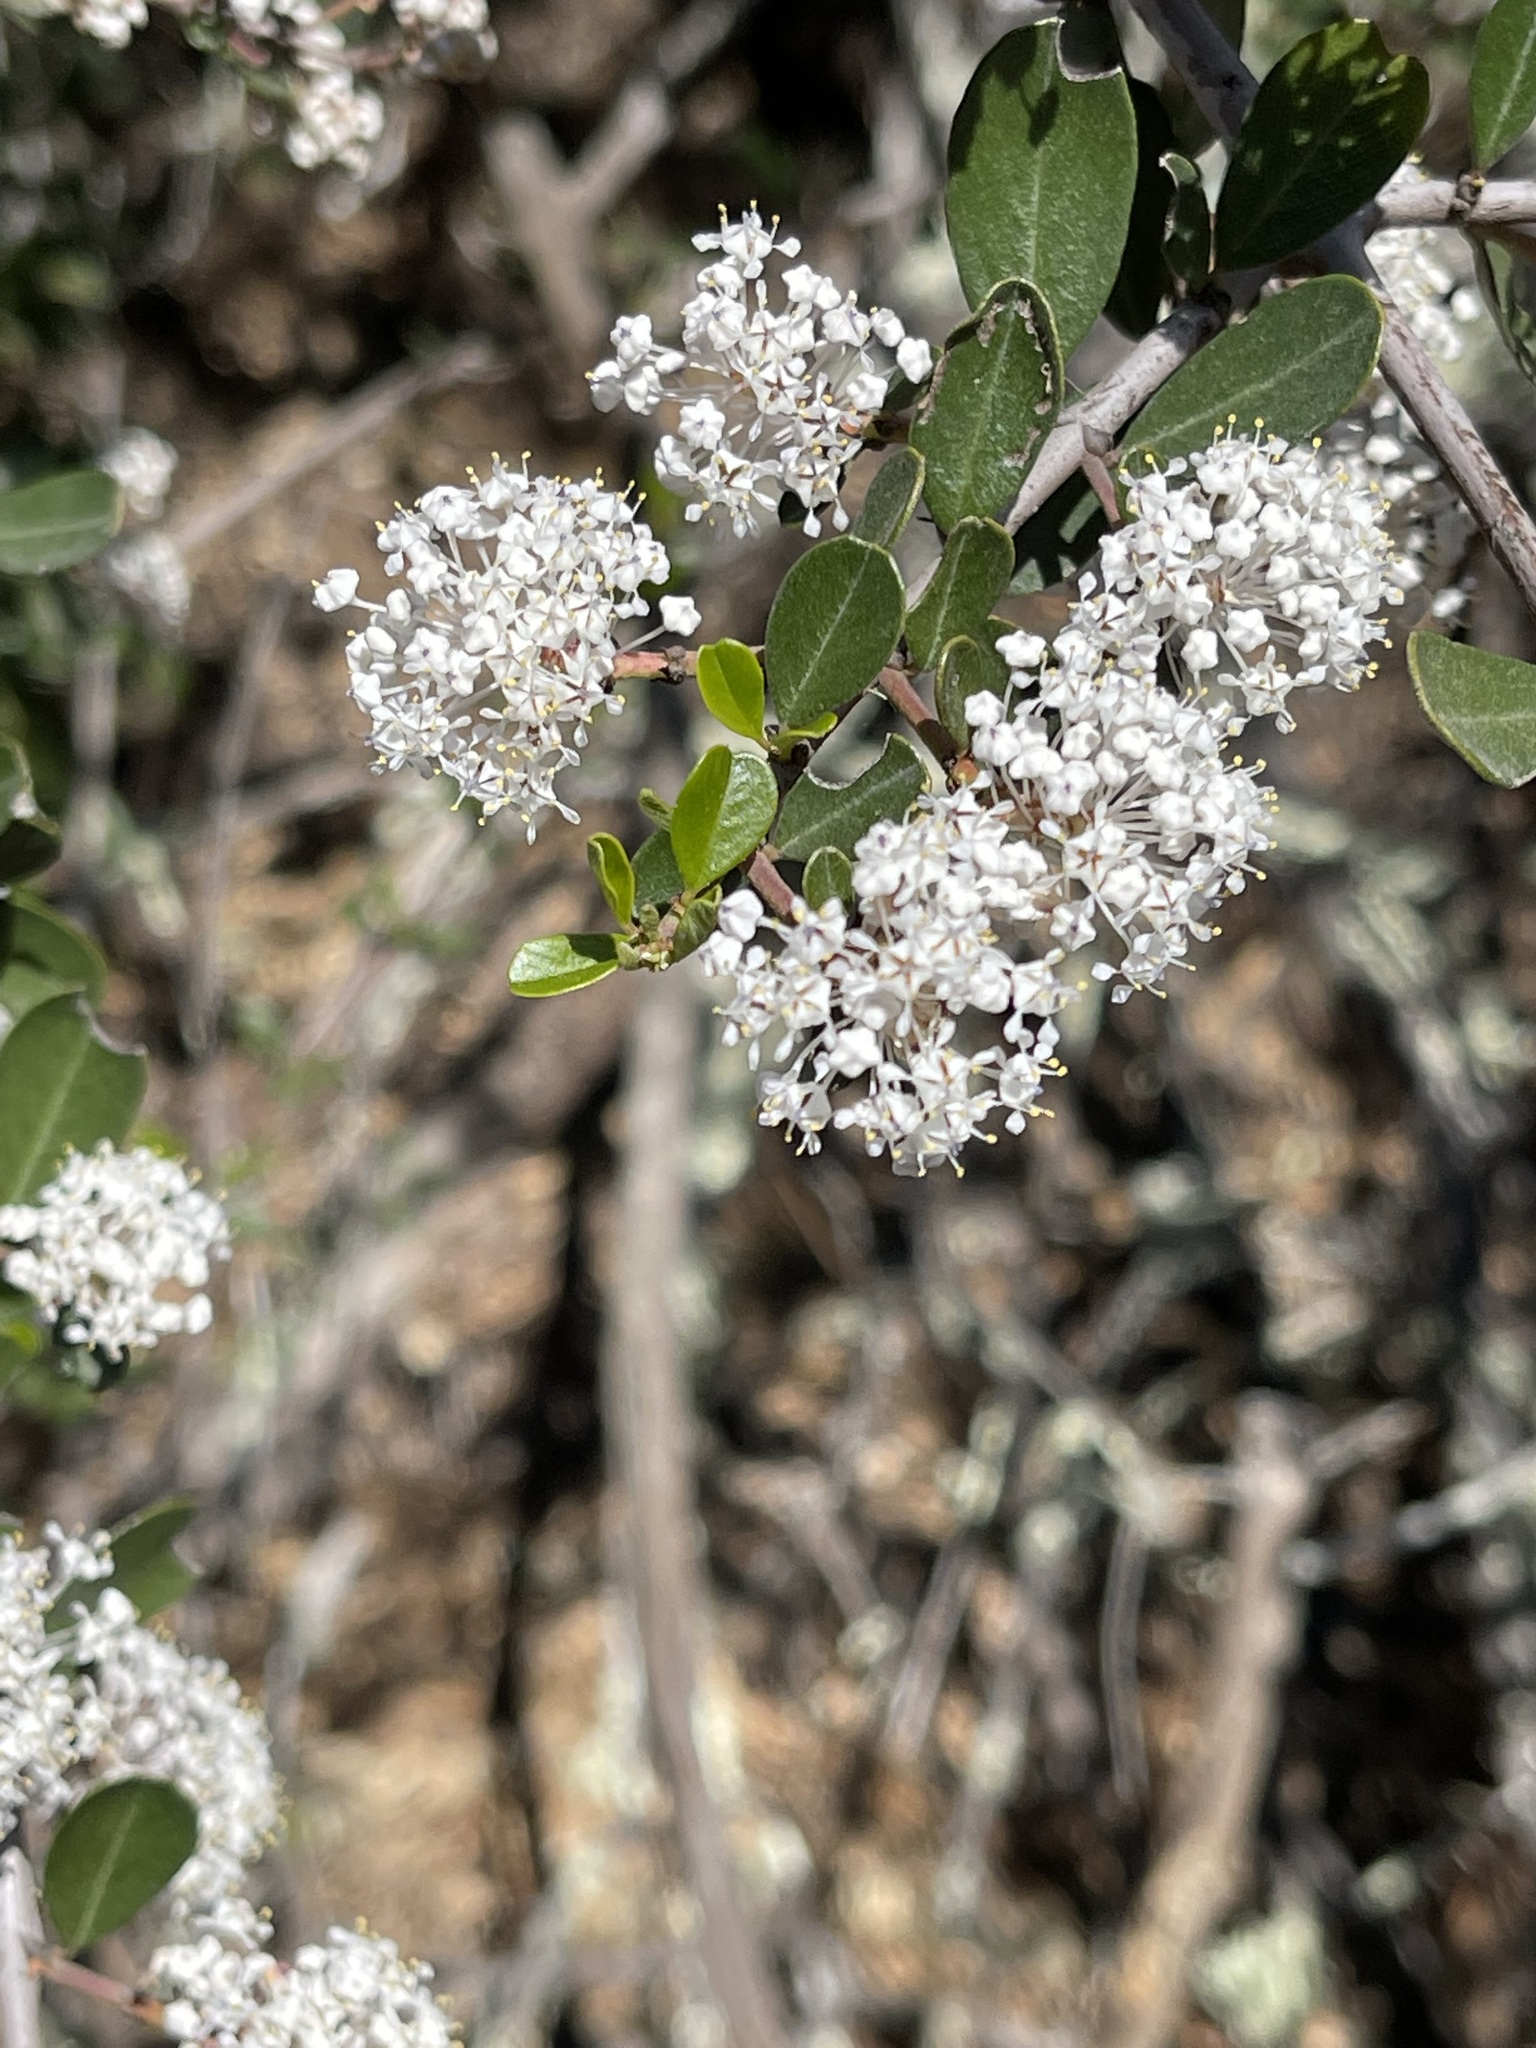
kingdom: Plantae
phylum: Tracheophyta
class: Magnoliopsida
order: Rosales
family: Rhamnaceae
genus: Ceanothus
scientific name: Ceanothus cuneatus
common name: Cuneate ceanothus
